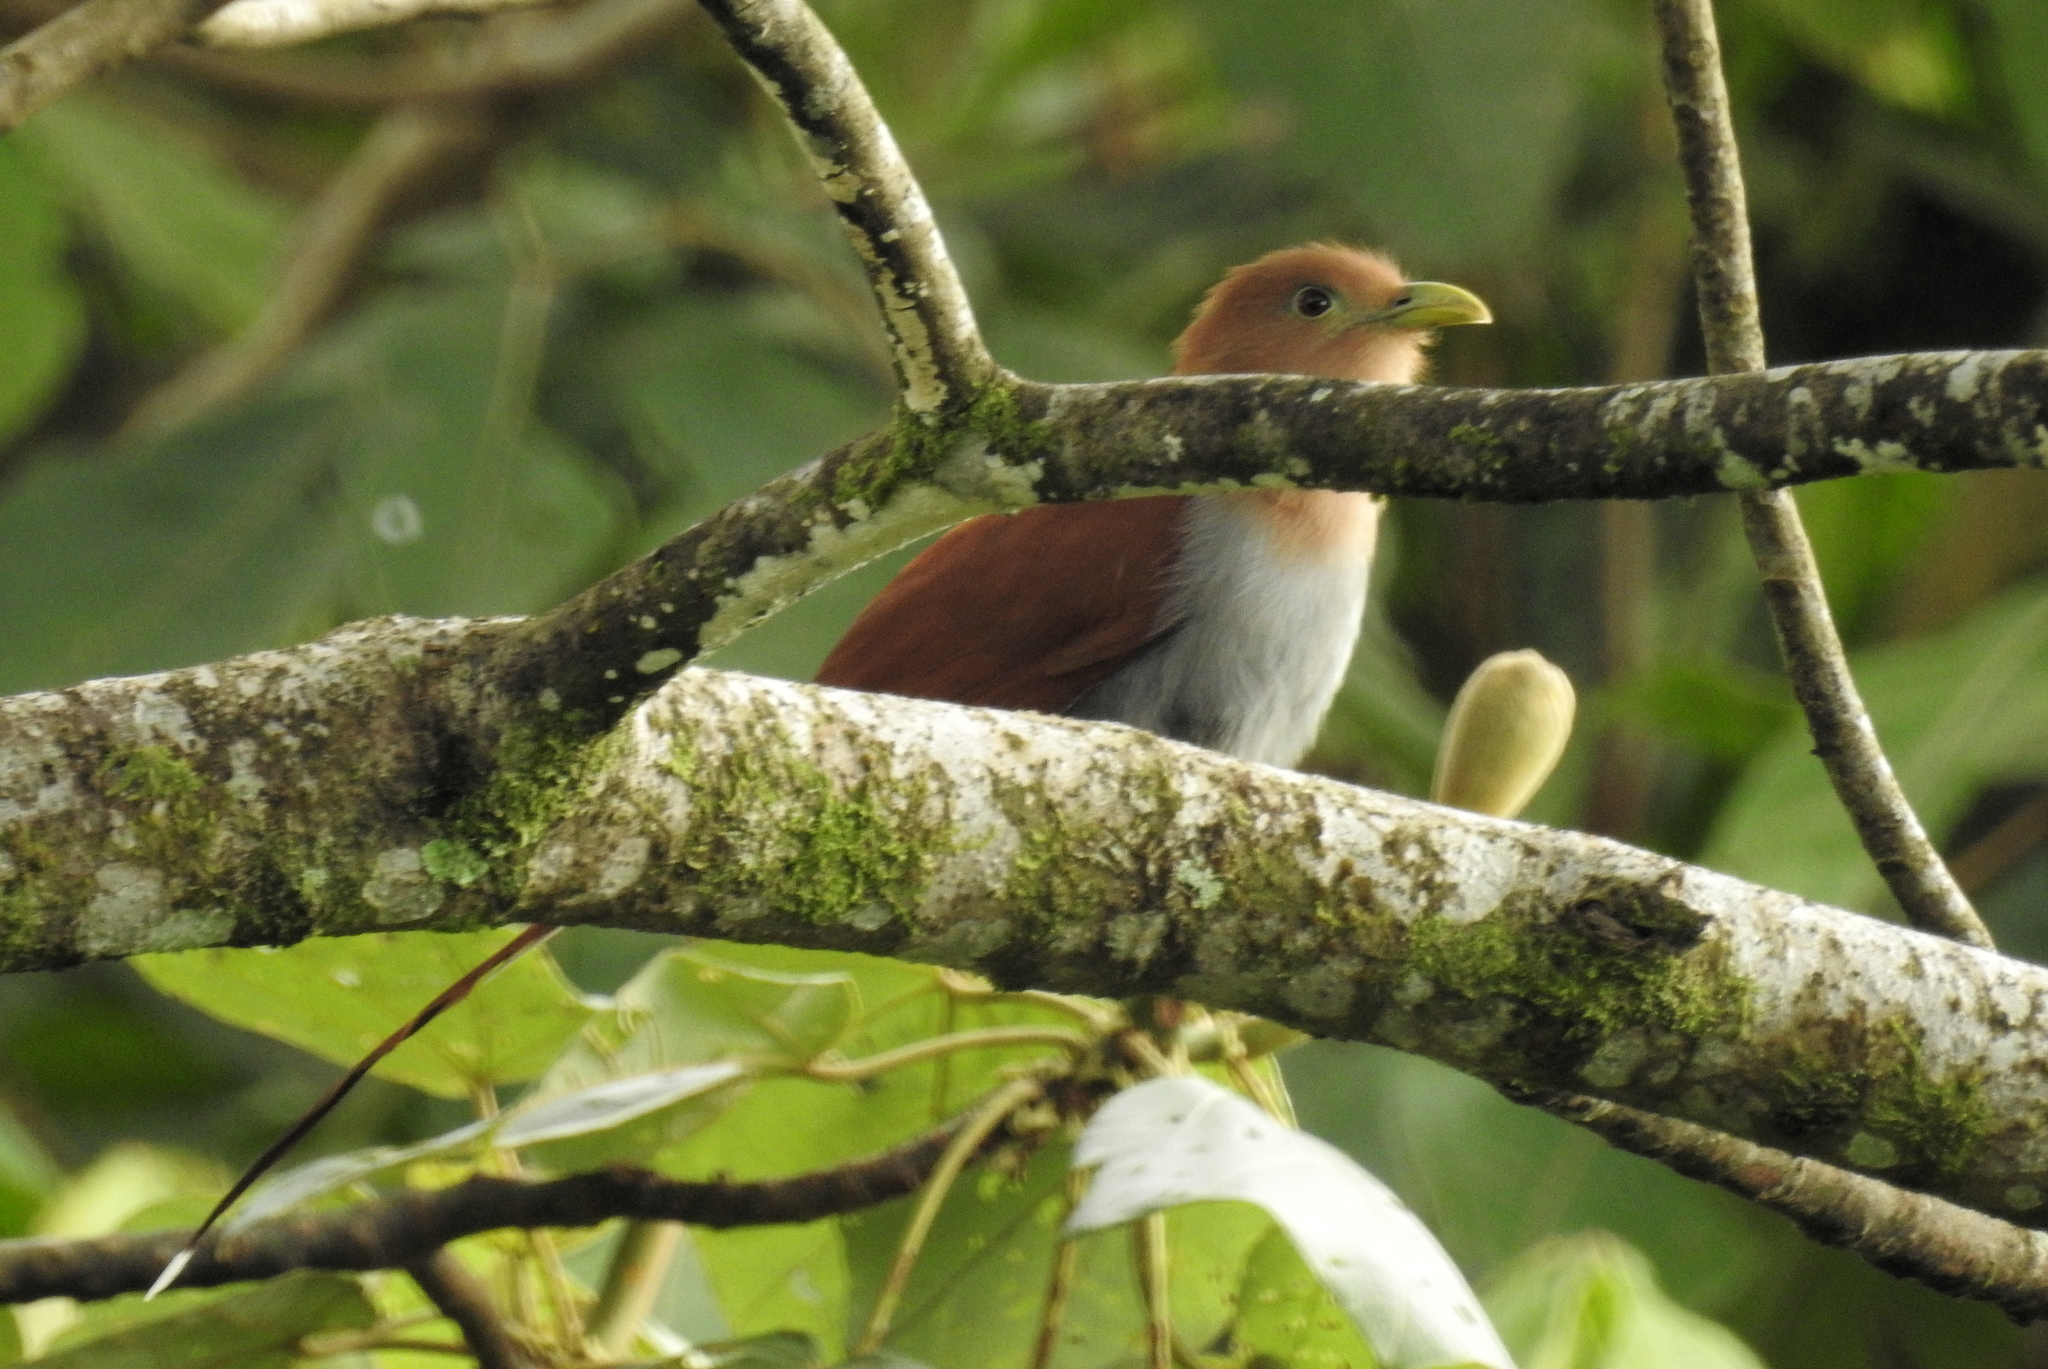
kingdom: Animalia
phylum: Chordata
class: Aves
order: Cuculiformes
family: Cuculidae
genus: Piaya
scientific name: Piaya cayana
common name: Squirrel cuckoo
